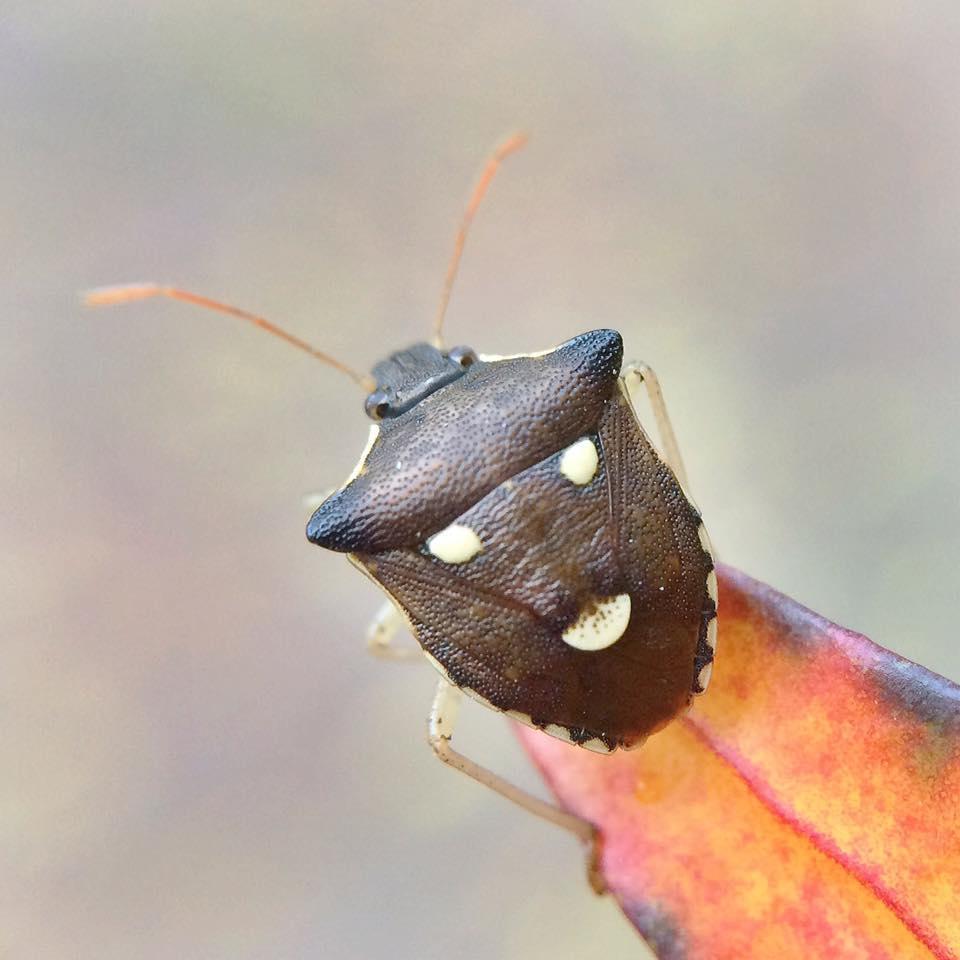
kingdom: Animalia
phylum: Arthropoda
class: Insecta
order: Hemiptera
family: Pentatomidae
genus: Carbula
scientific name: Carbula trisignata
